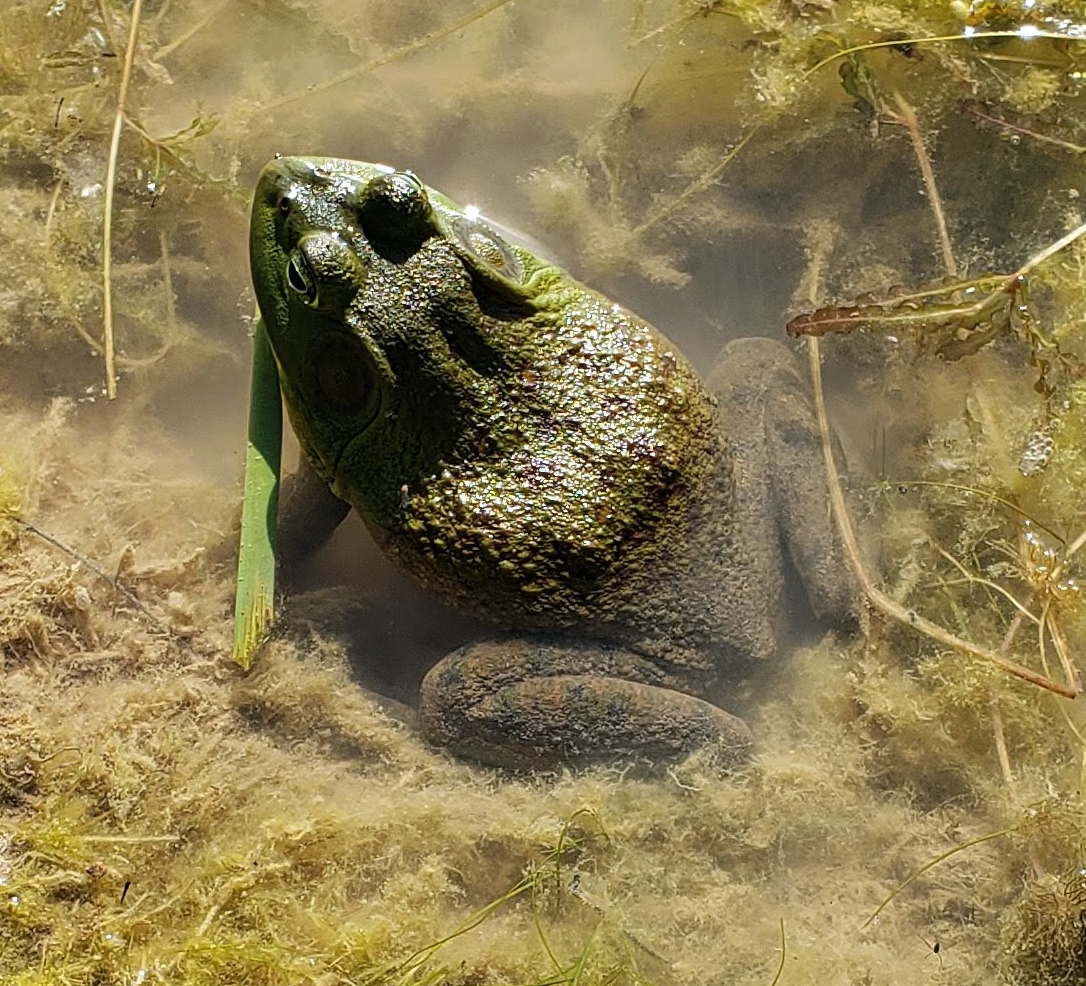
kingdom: Animalia
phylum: Chordata
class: Amphibia
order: Anura
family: Ranidae
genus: Lithobates
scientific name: Lithobates catesbeianus
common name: American bullfrog
